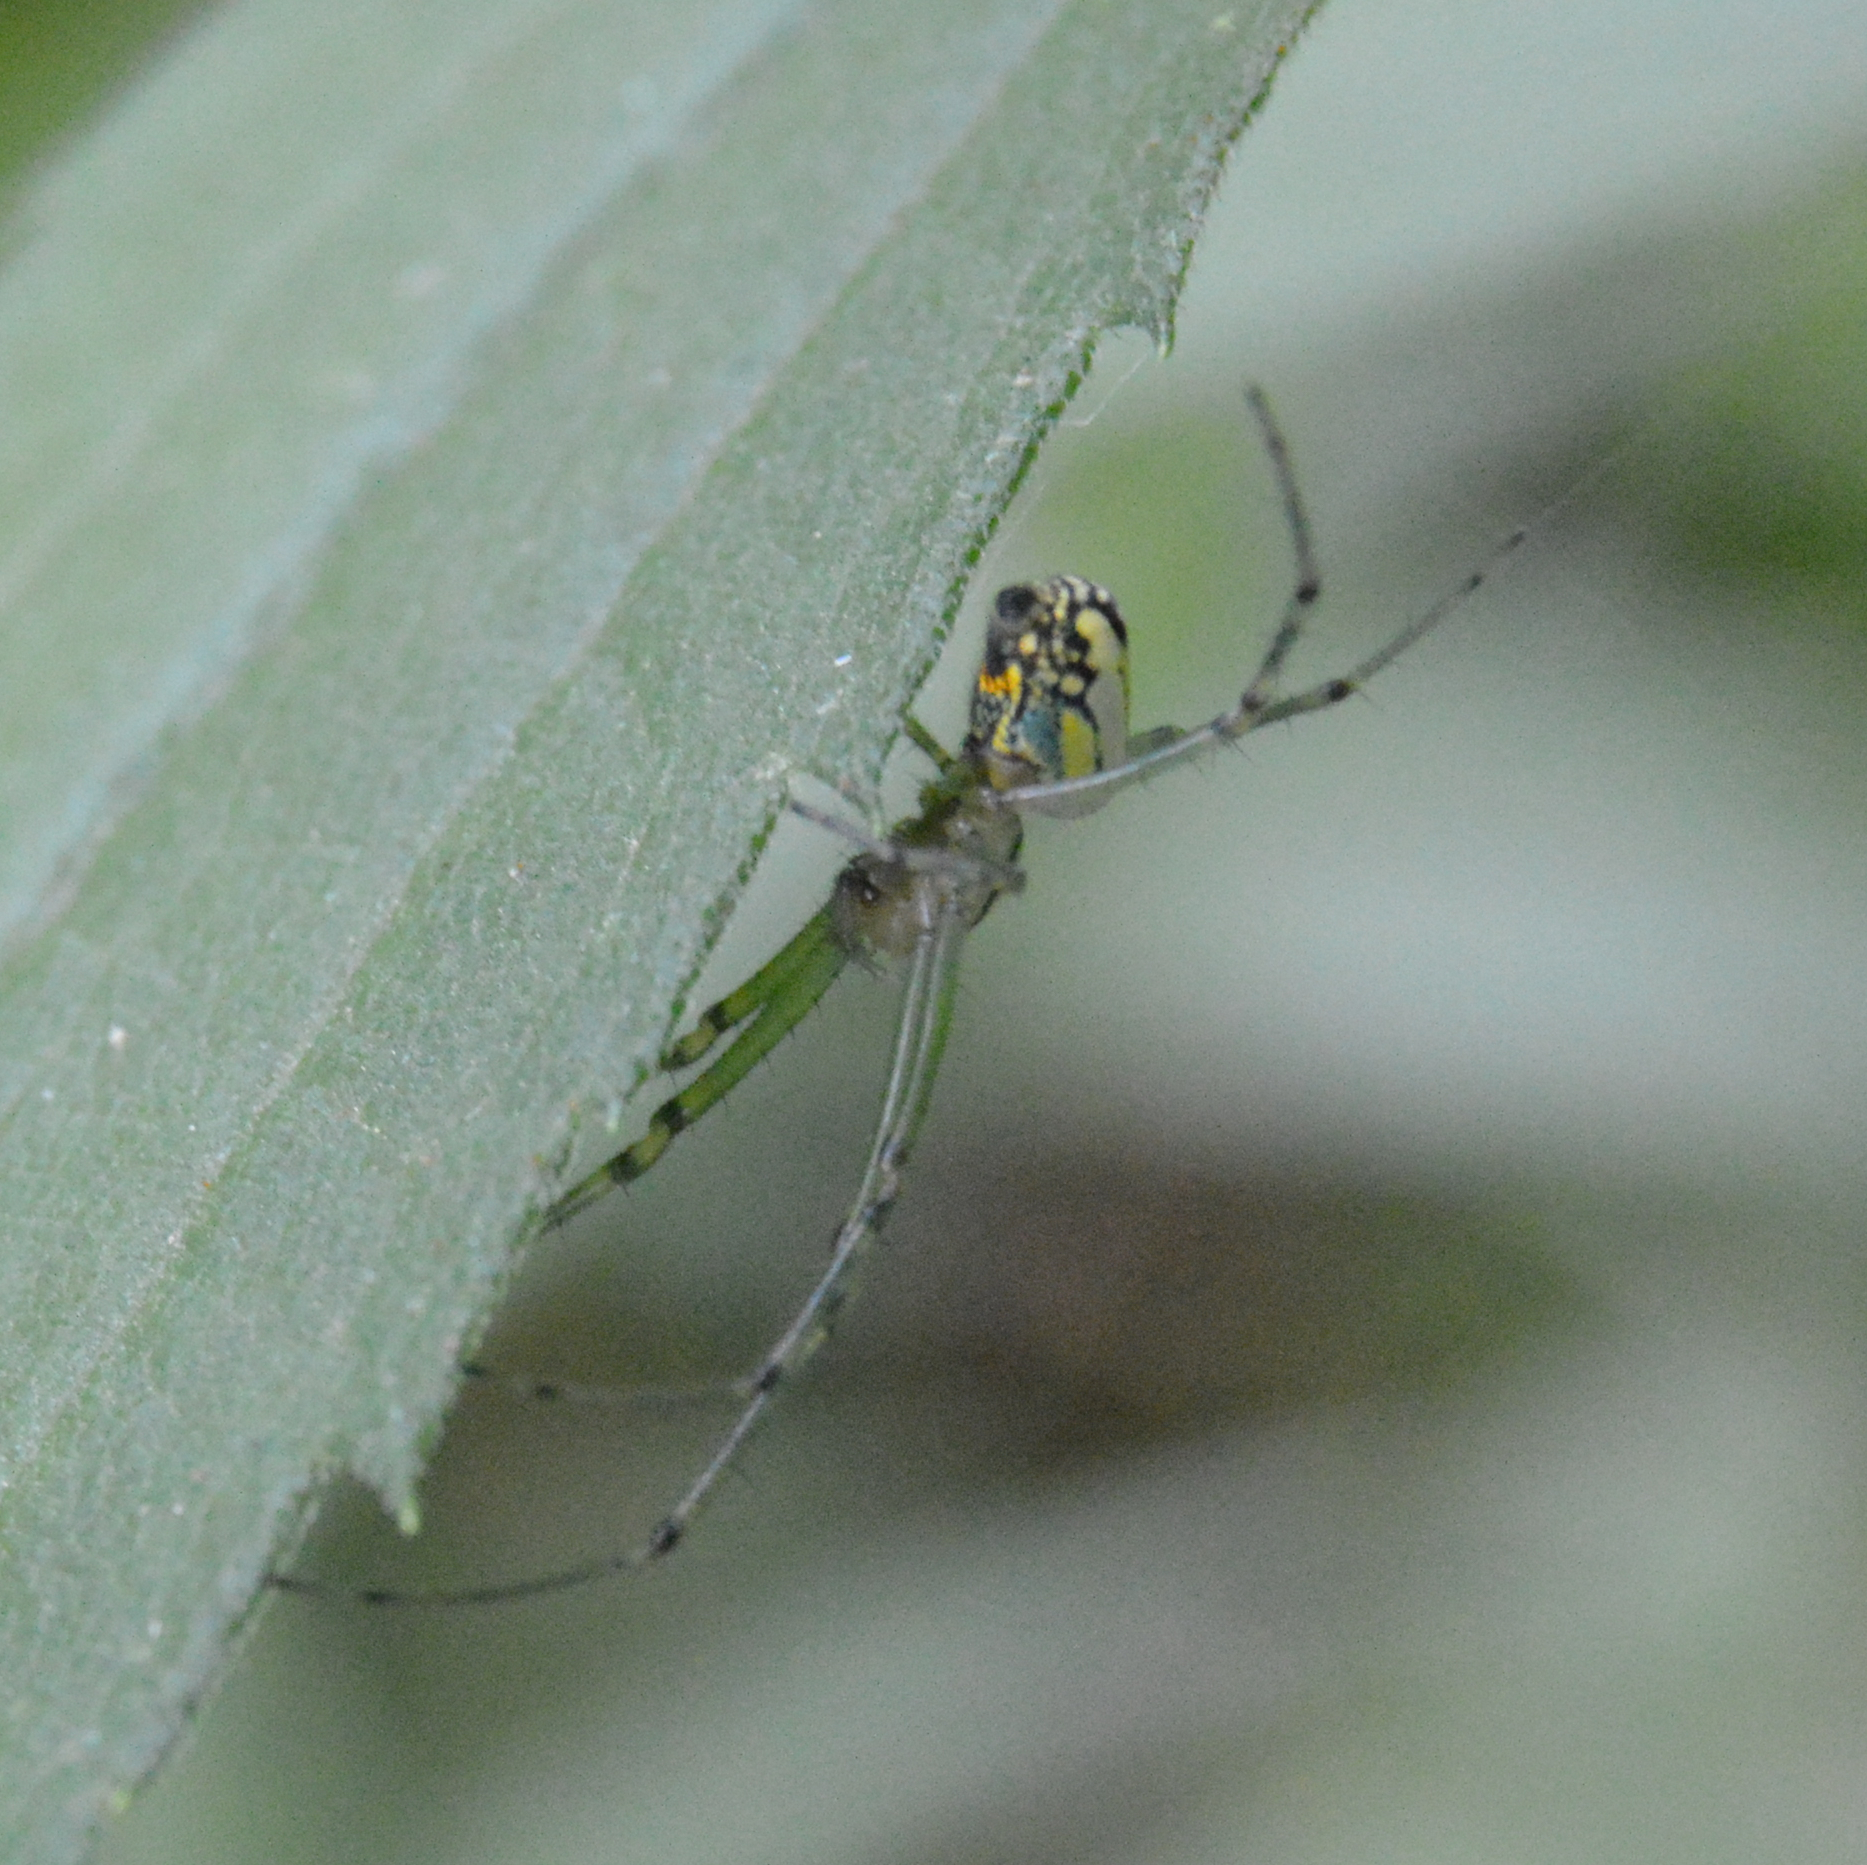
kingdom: Animalia
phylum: Arthropoda
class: Arachnida
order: Araneae
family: Tetragnathidae
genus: Leucauge
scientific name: Leucauge venusta
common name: Longjawed orb weavers
